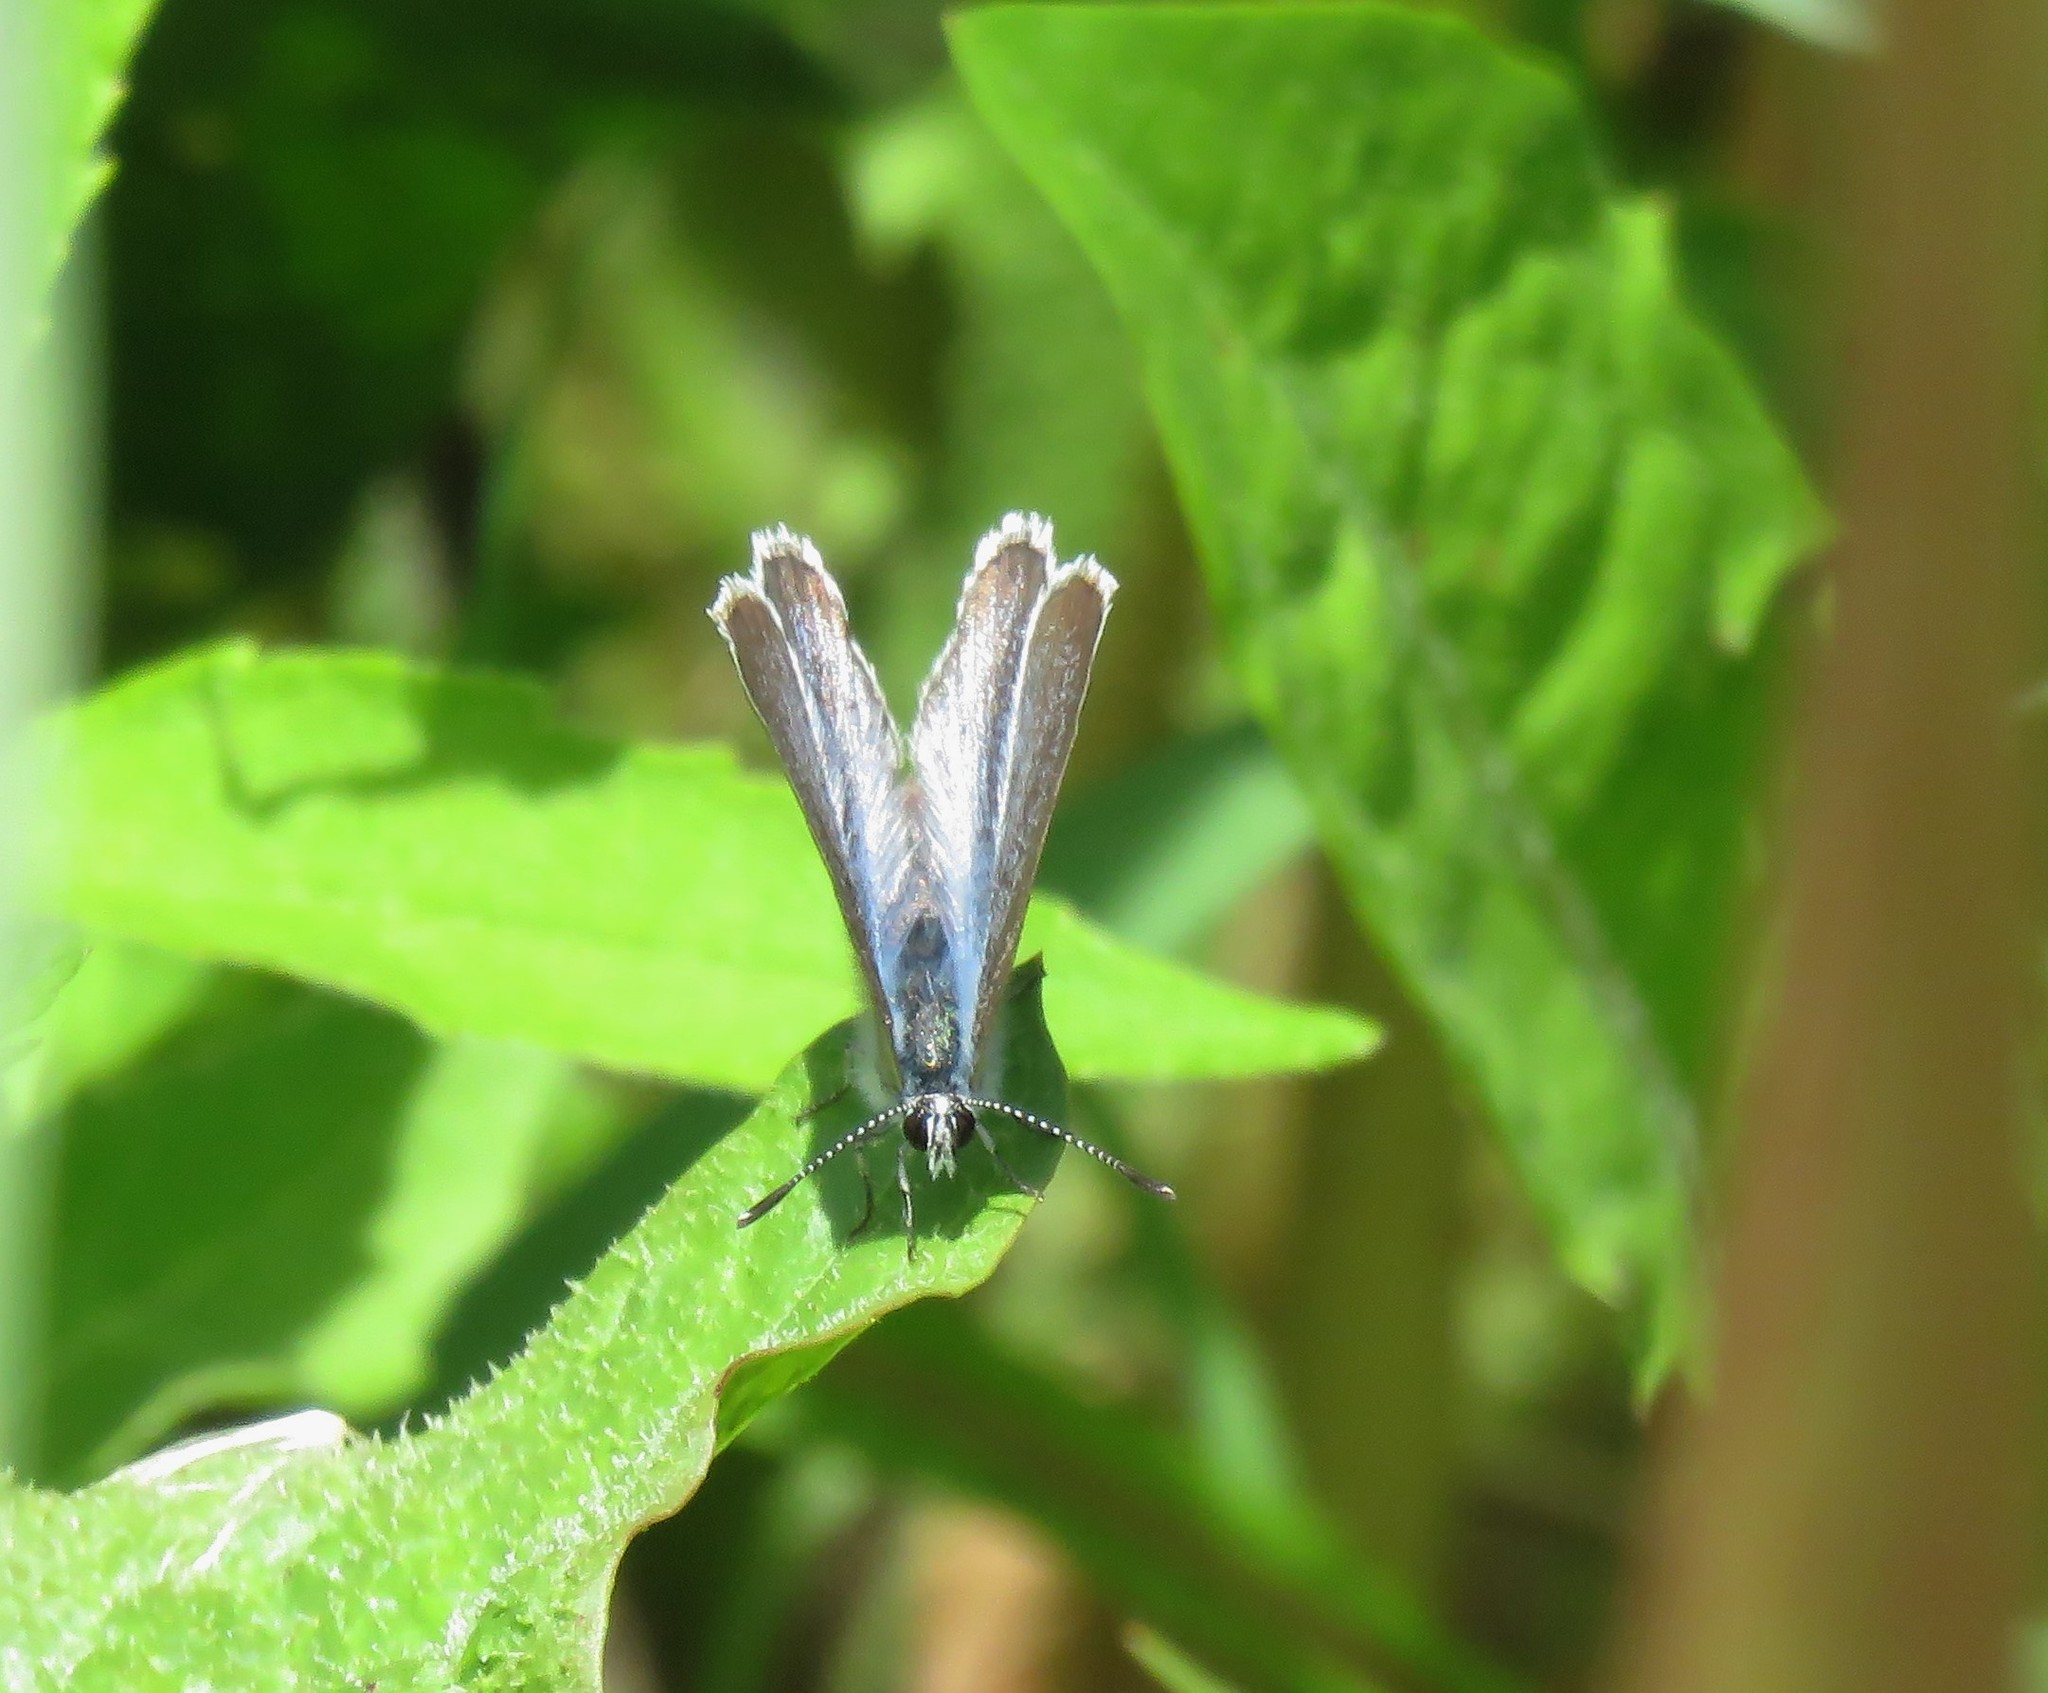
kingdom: Animalia
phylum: Arthropoda
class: Insecta
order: Lepidoptera
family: Lycaenidae
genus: Glaucopsyche
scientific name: Glaucopsyche lygdamus
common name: Silvery blue
